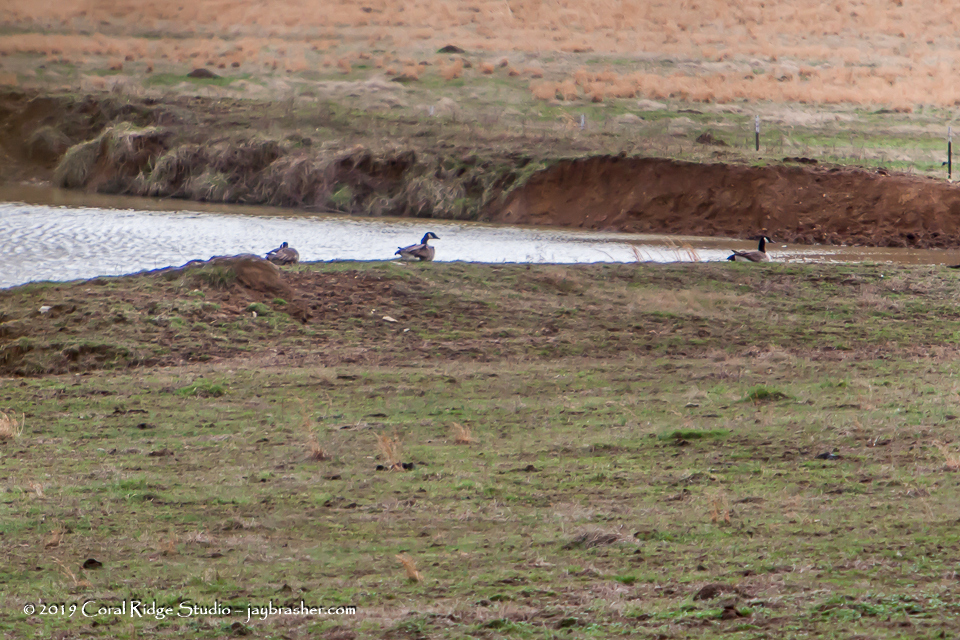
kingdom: Animalia
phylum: Chordata
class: Aves
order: Anseriformes
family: Anatidae
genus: Branta
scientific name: Branta canadensis
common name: Canada goose
